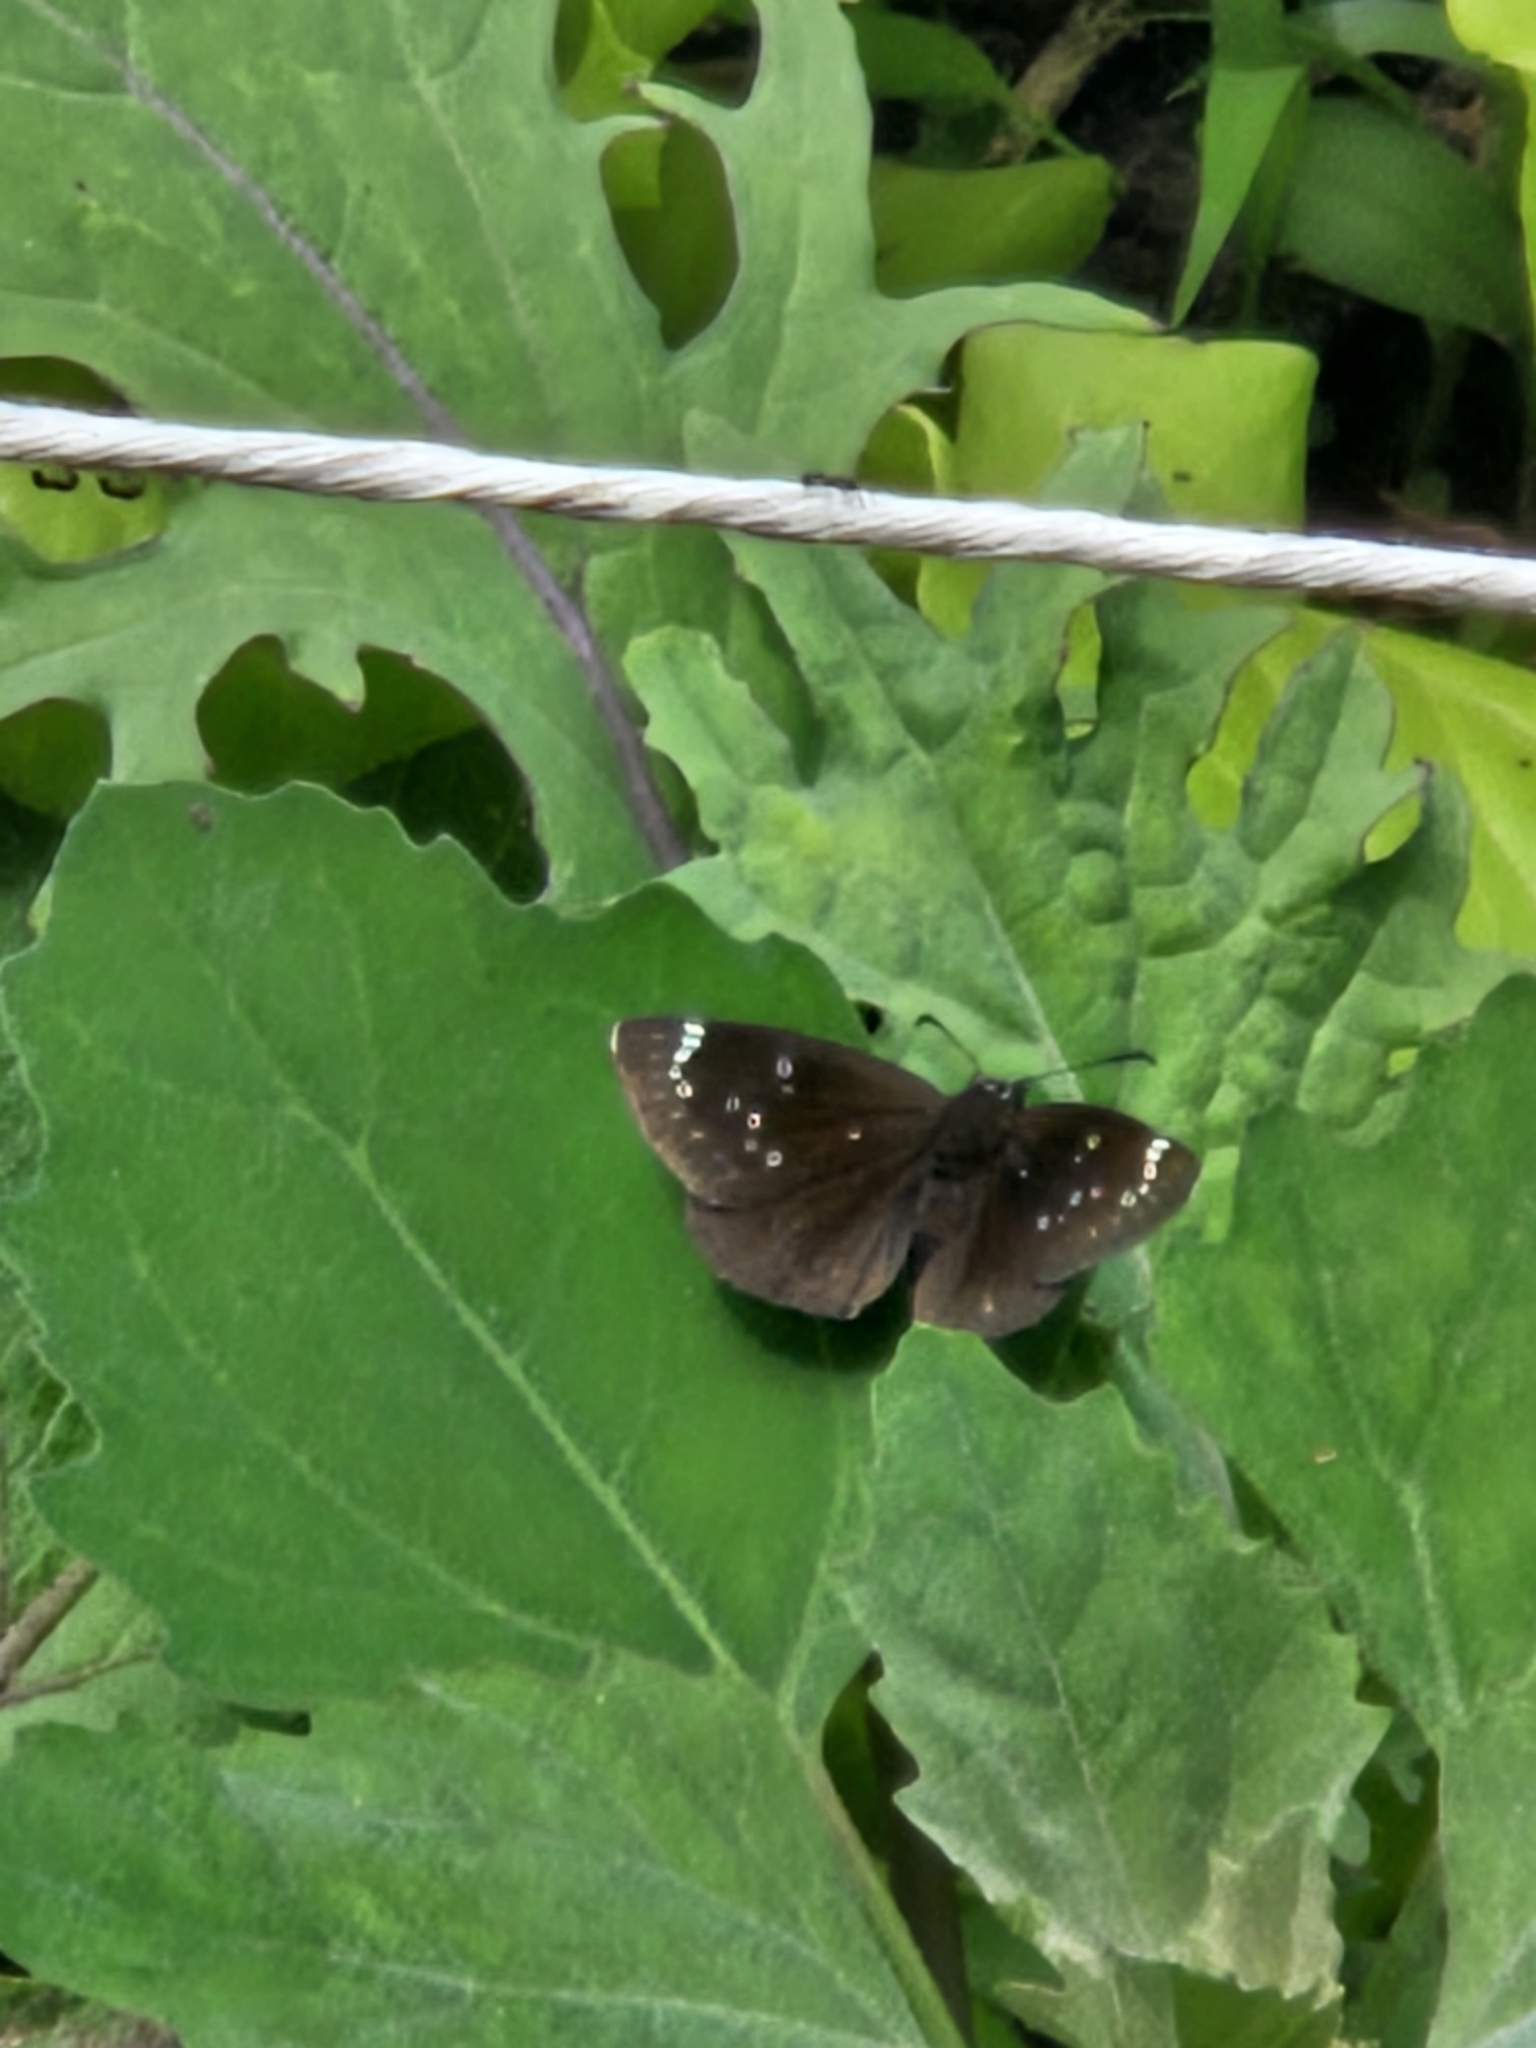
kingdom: Animalia
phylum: Arthropoda
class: Insecta
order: Lepidoptera
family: Hesperiidae
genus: Pholisora
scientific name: Pholisora catullus
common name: Common sootywing
